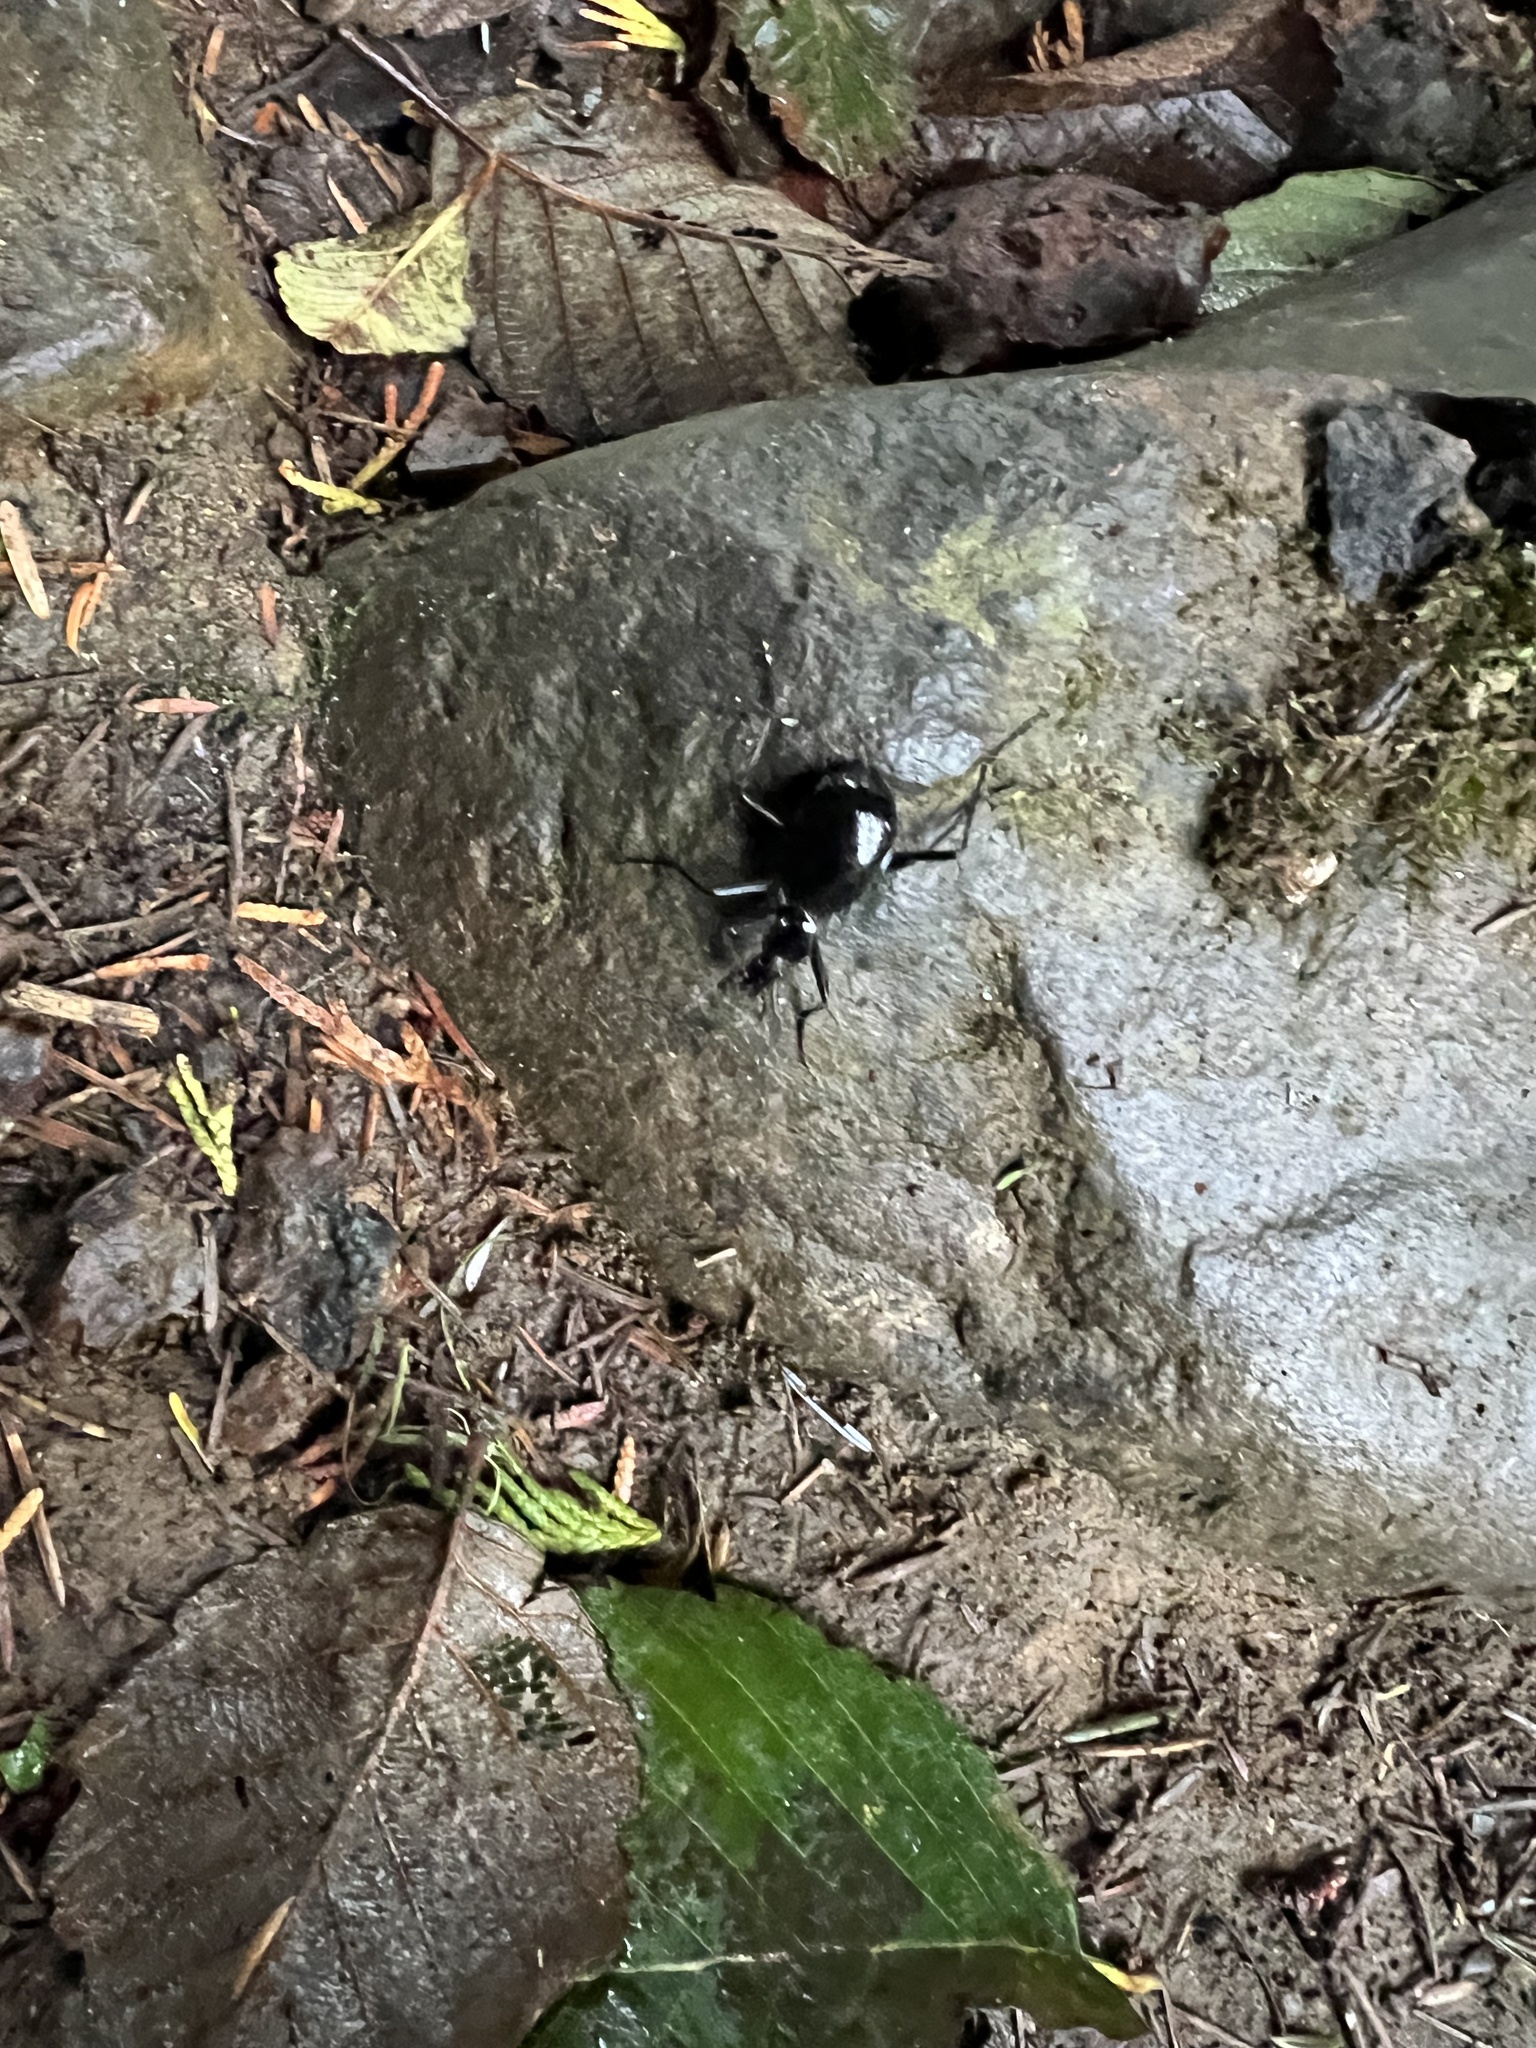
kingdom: Animalia
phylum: Arthropoda
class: Insecta
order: Coleoptera
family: Carabidae
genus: Scaphinotus
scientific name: Scaphinotus velutinus
